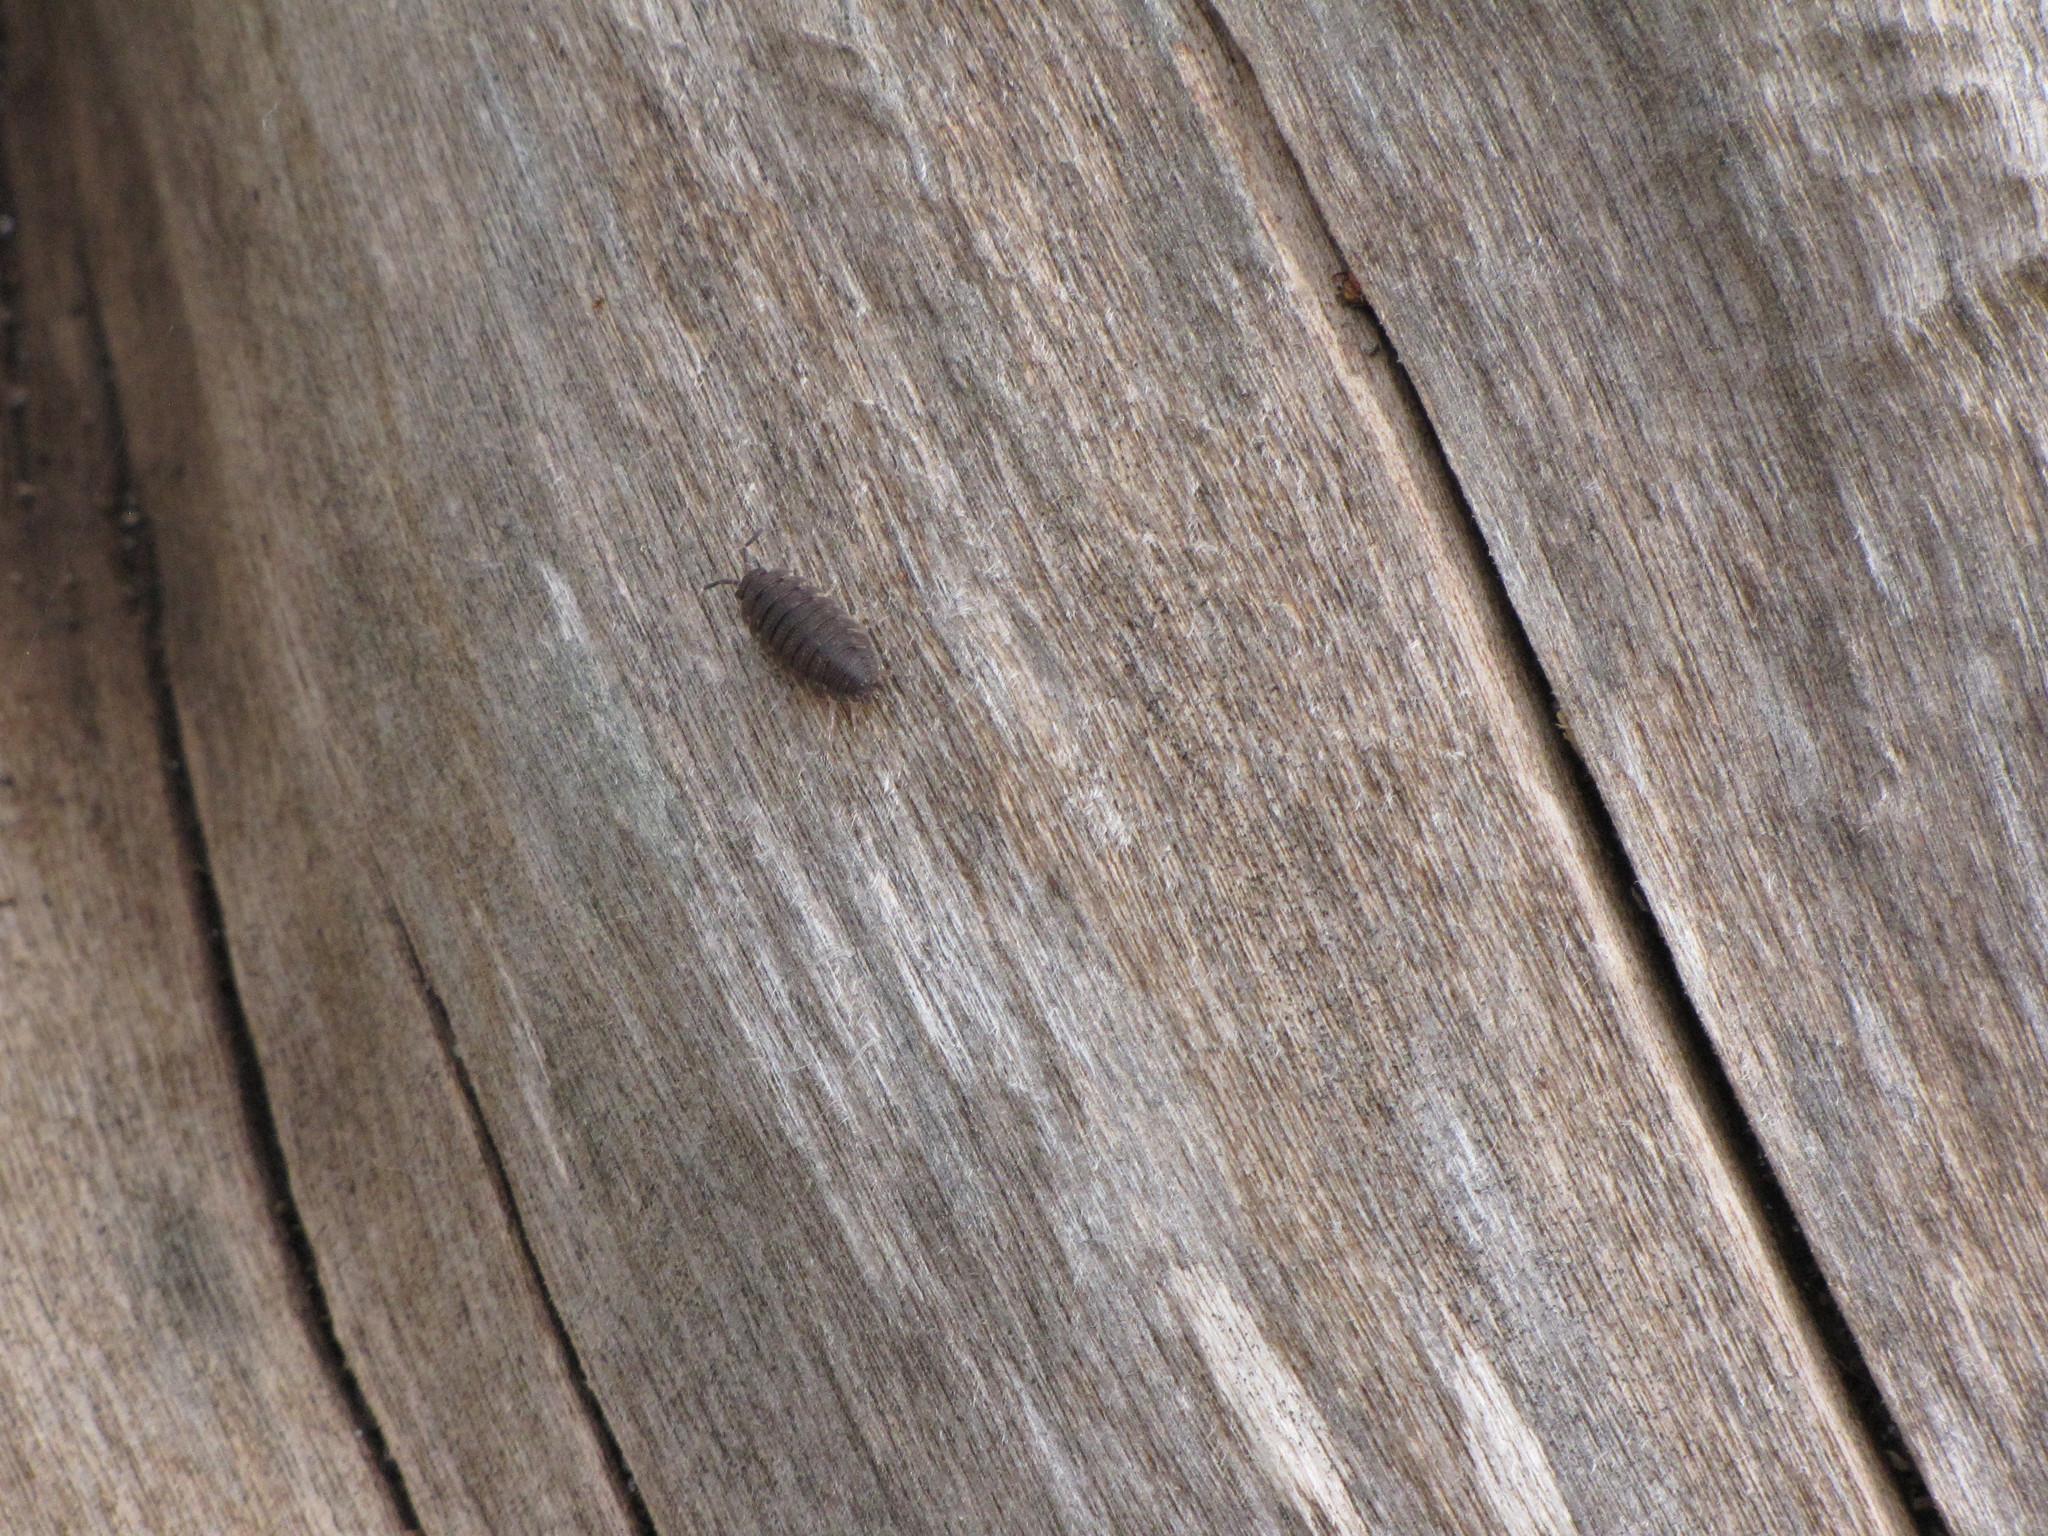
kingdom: Animalia
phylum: Arthropoda
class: Malacostraca
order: Isopoda
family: Porcellionidae
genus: Porcellio
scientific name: Porcellio scaber
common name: Common rough woodlouse
